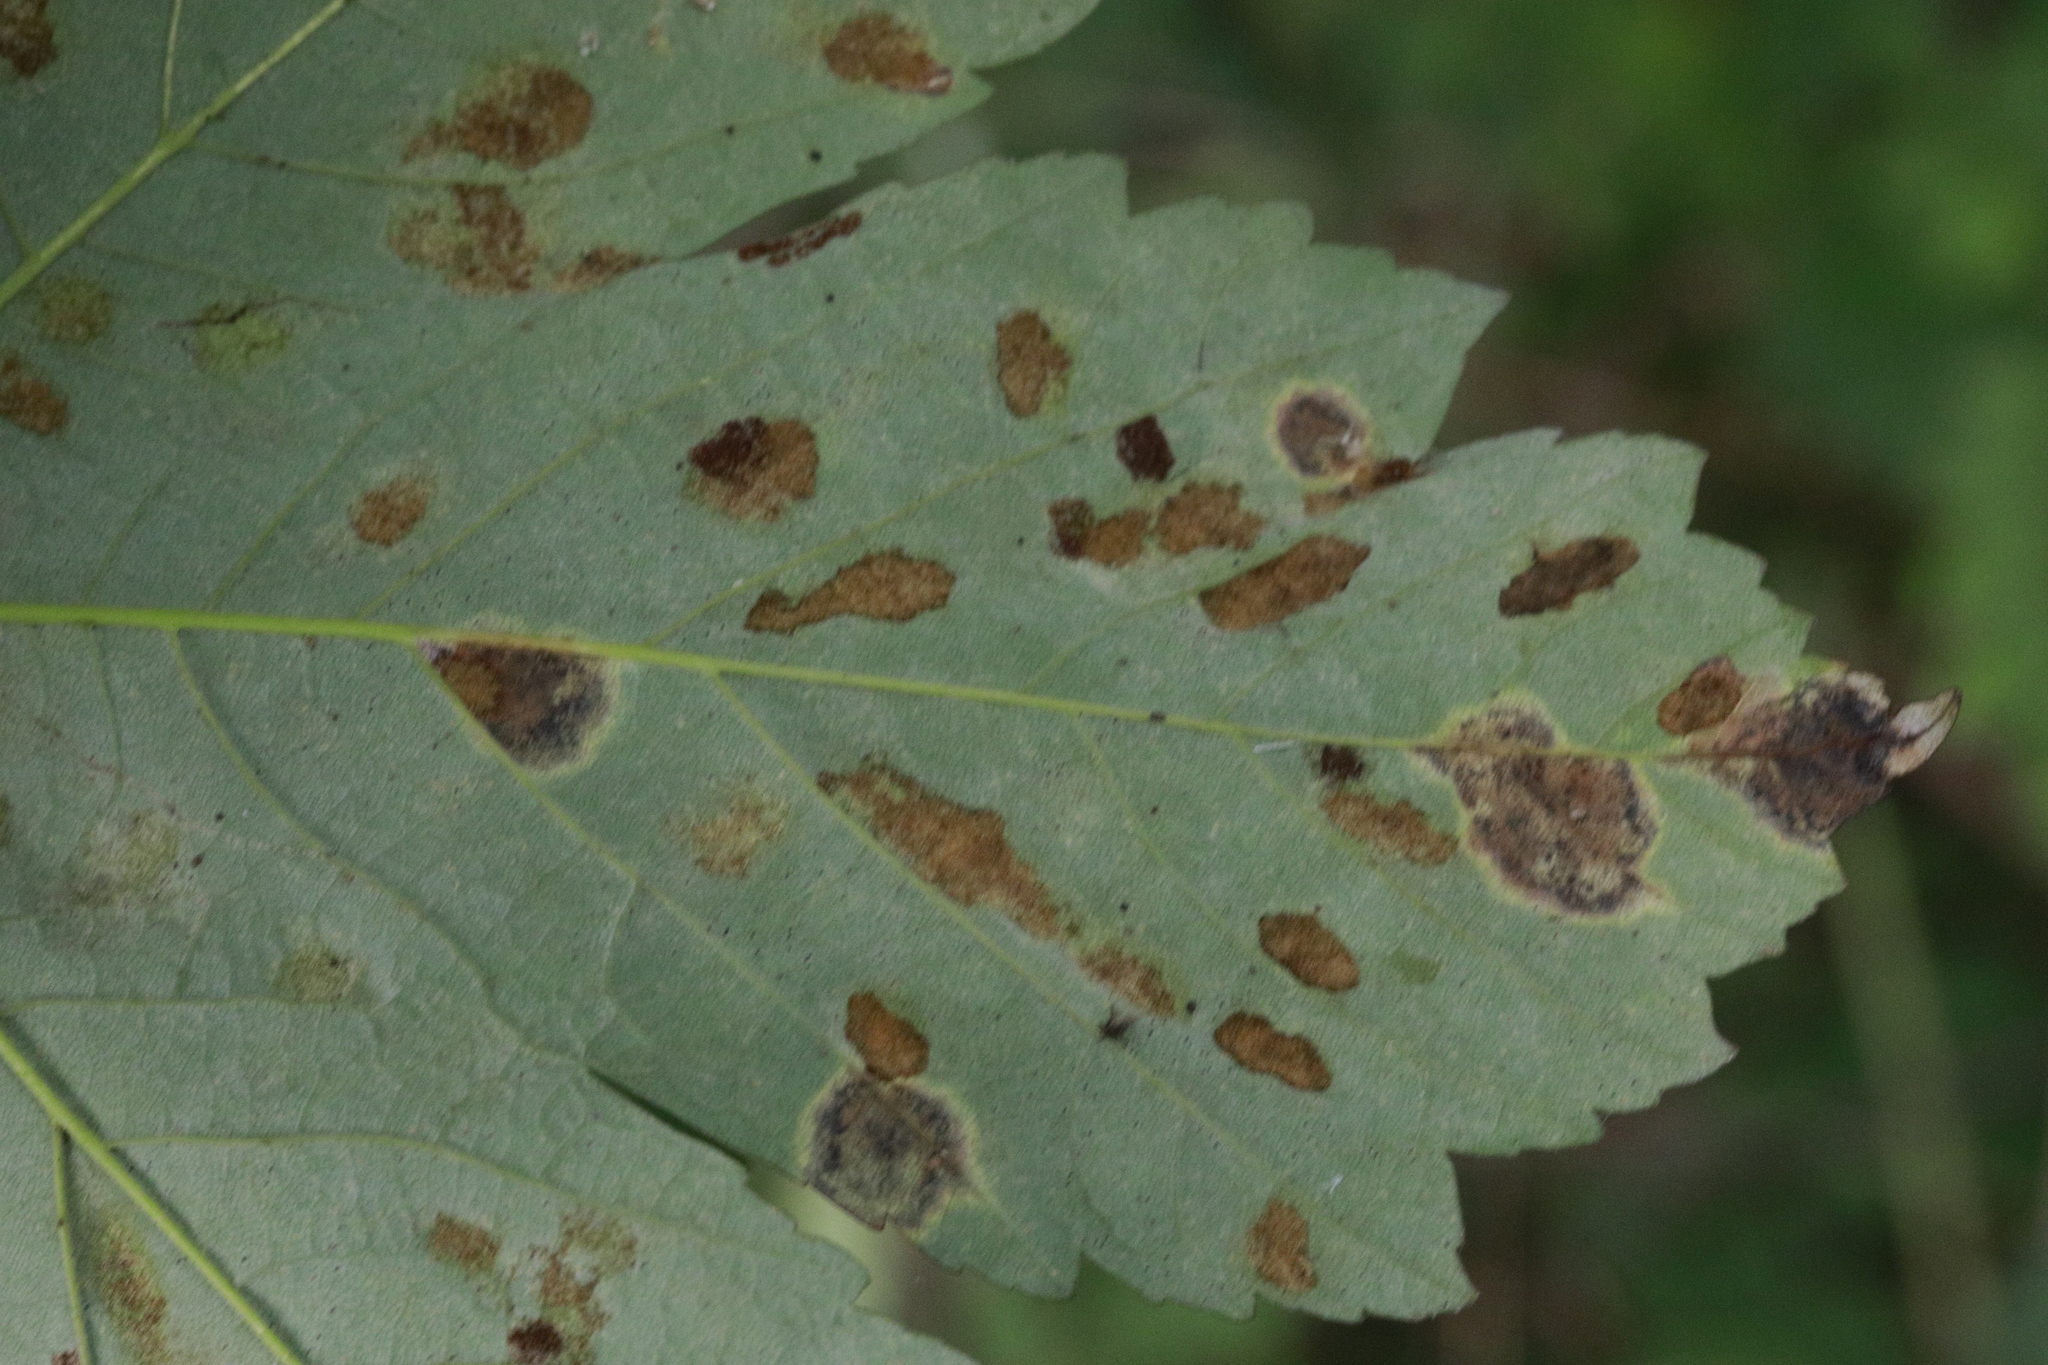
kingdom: Animalia
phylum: Arthropoda
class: Arachnida
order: Trombidiformes
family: Eriophyidae
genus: Aceria
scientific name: Aceria pseudoplatani
